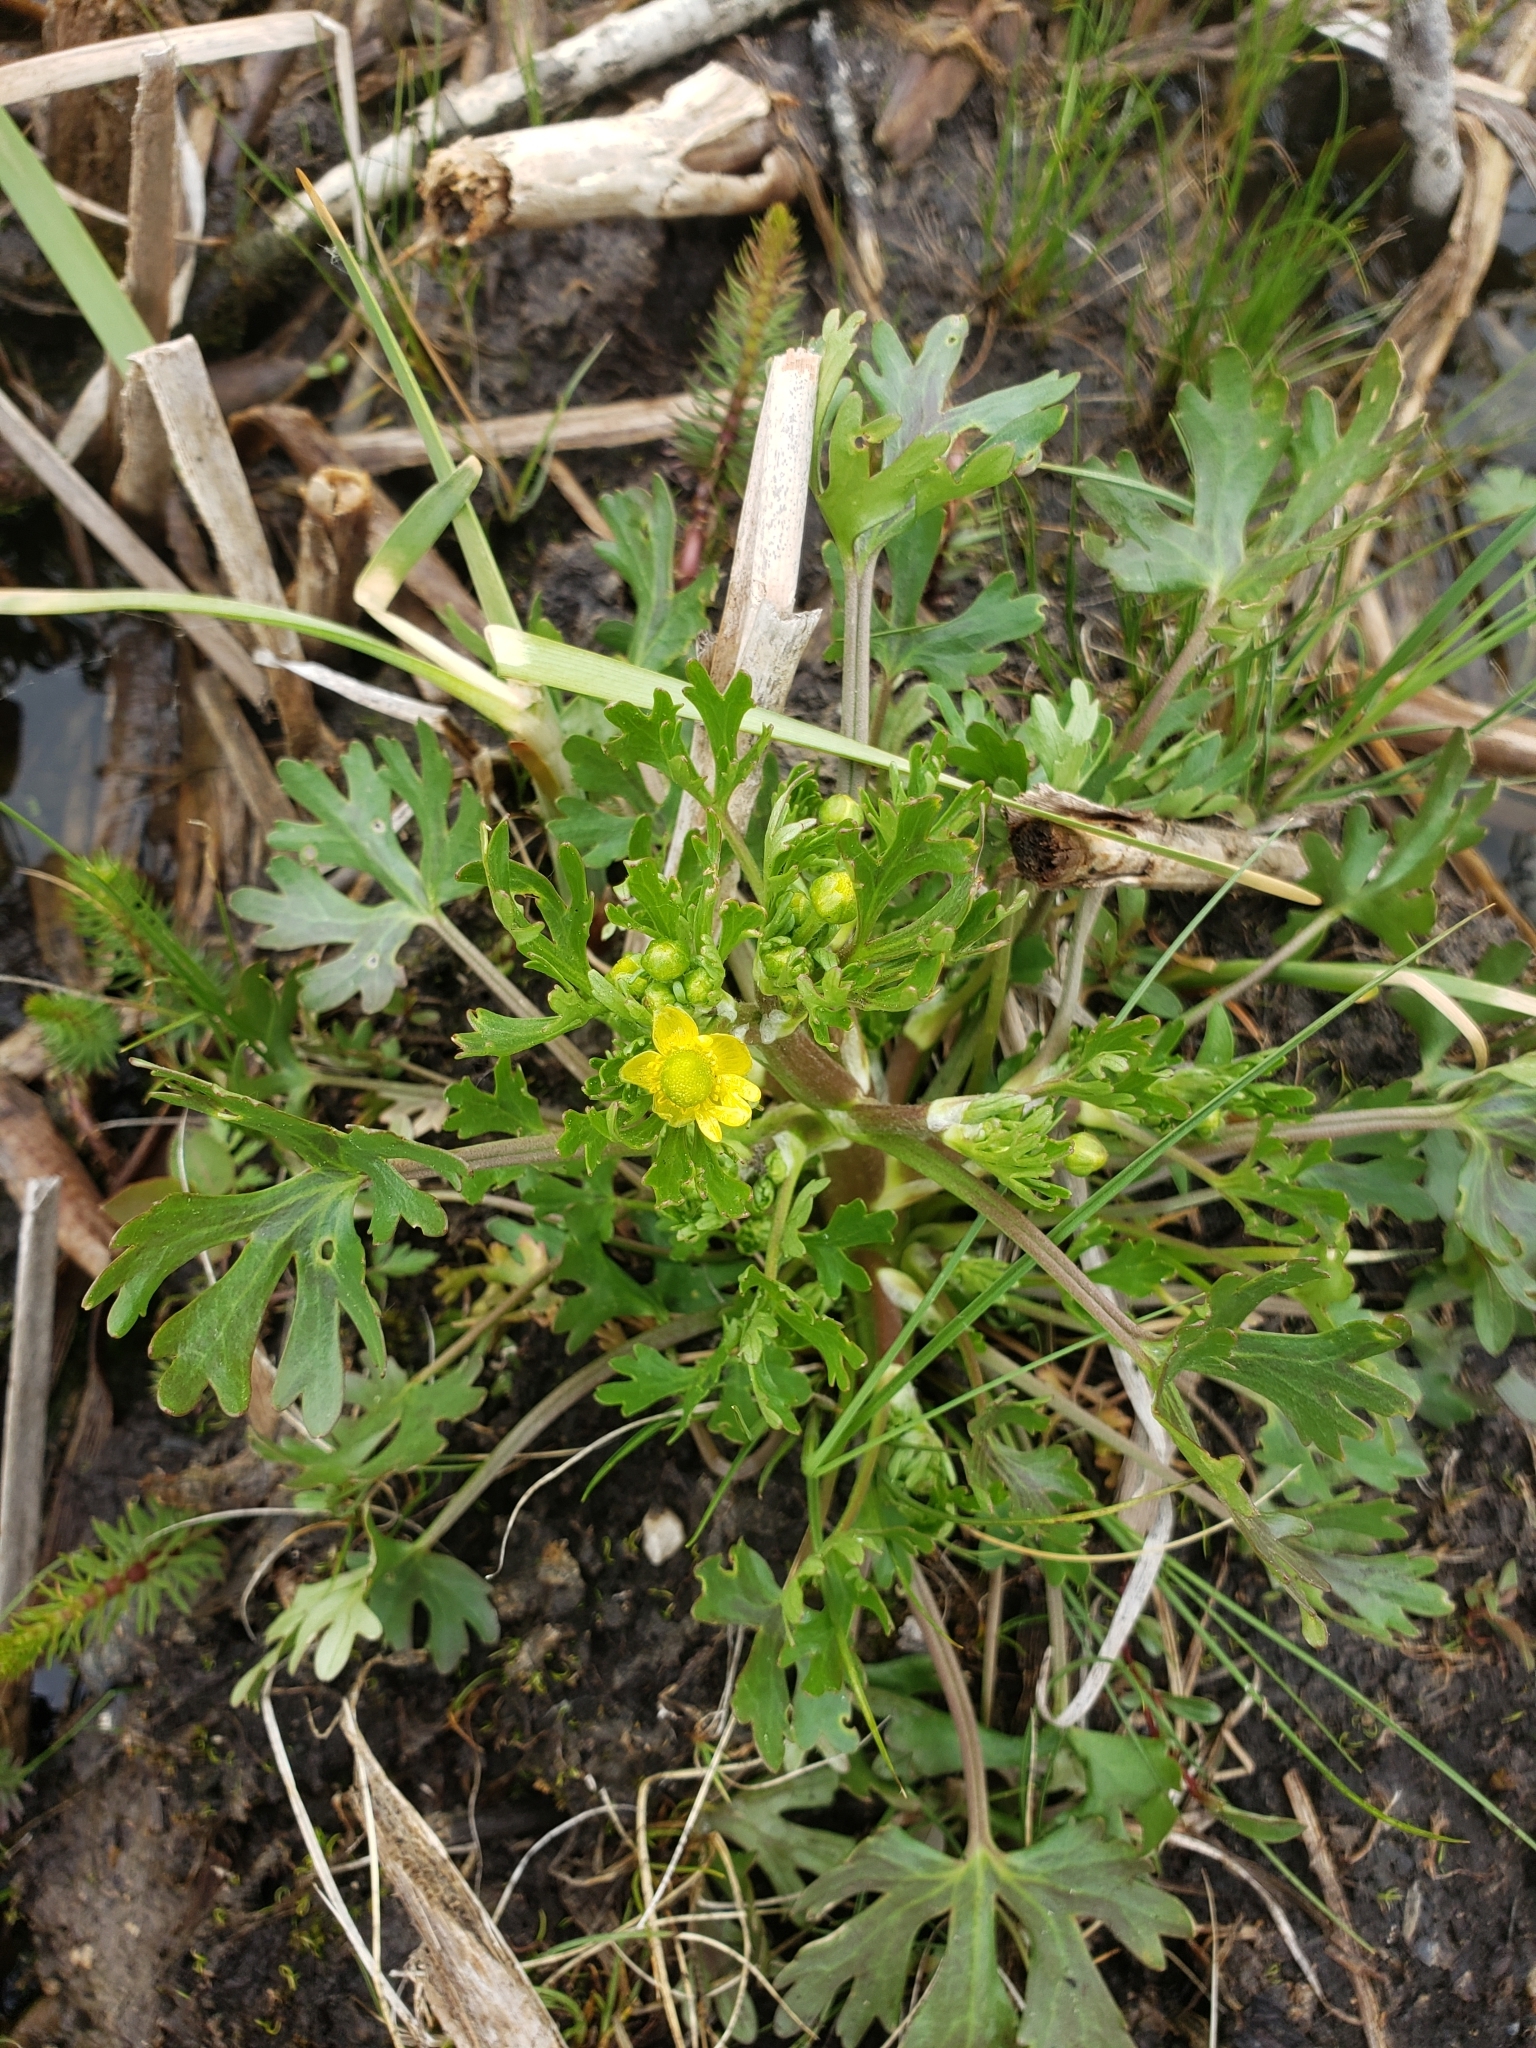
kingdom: Plantae
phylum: Tracheophyta
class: Magnoliopsida
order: Ranunculales
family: Ranunculaceae
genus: Ranunculus
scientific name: Ranunculus sceleratus
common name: Celery-leaved buttercup
